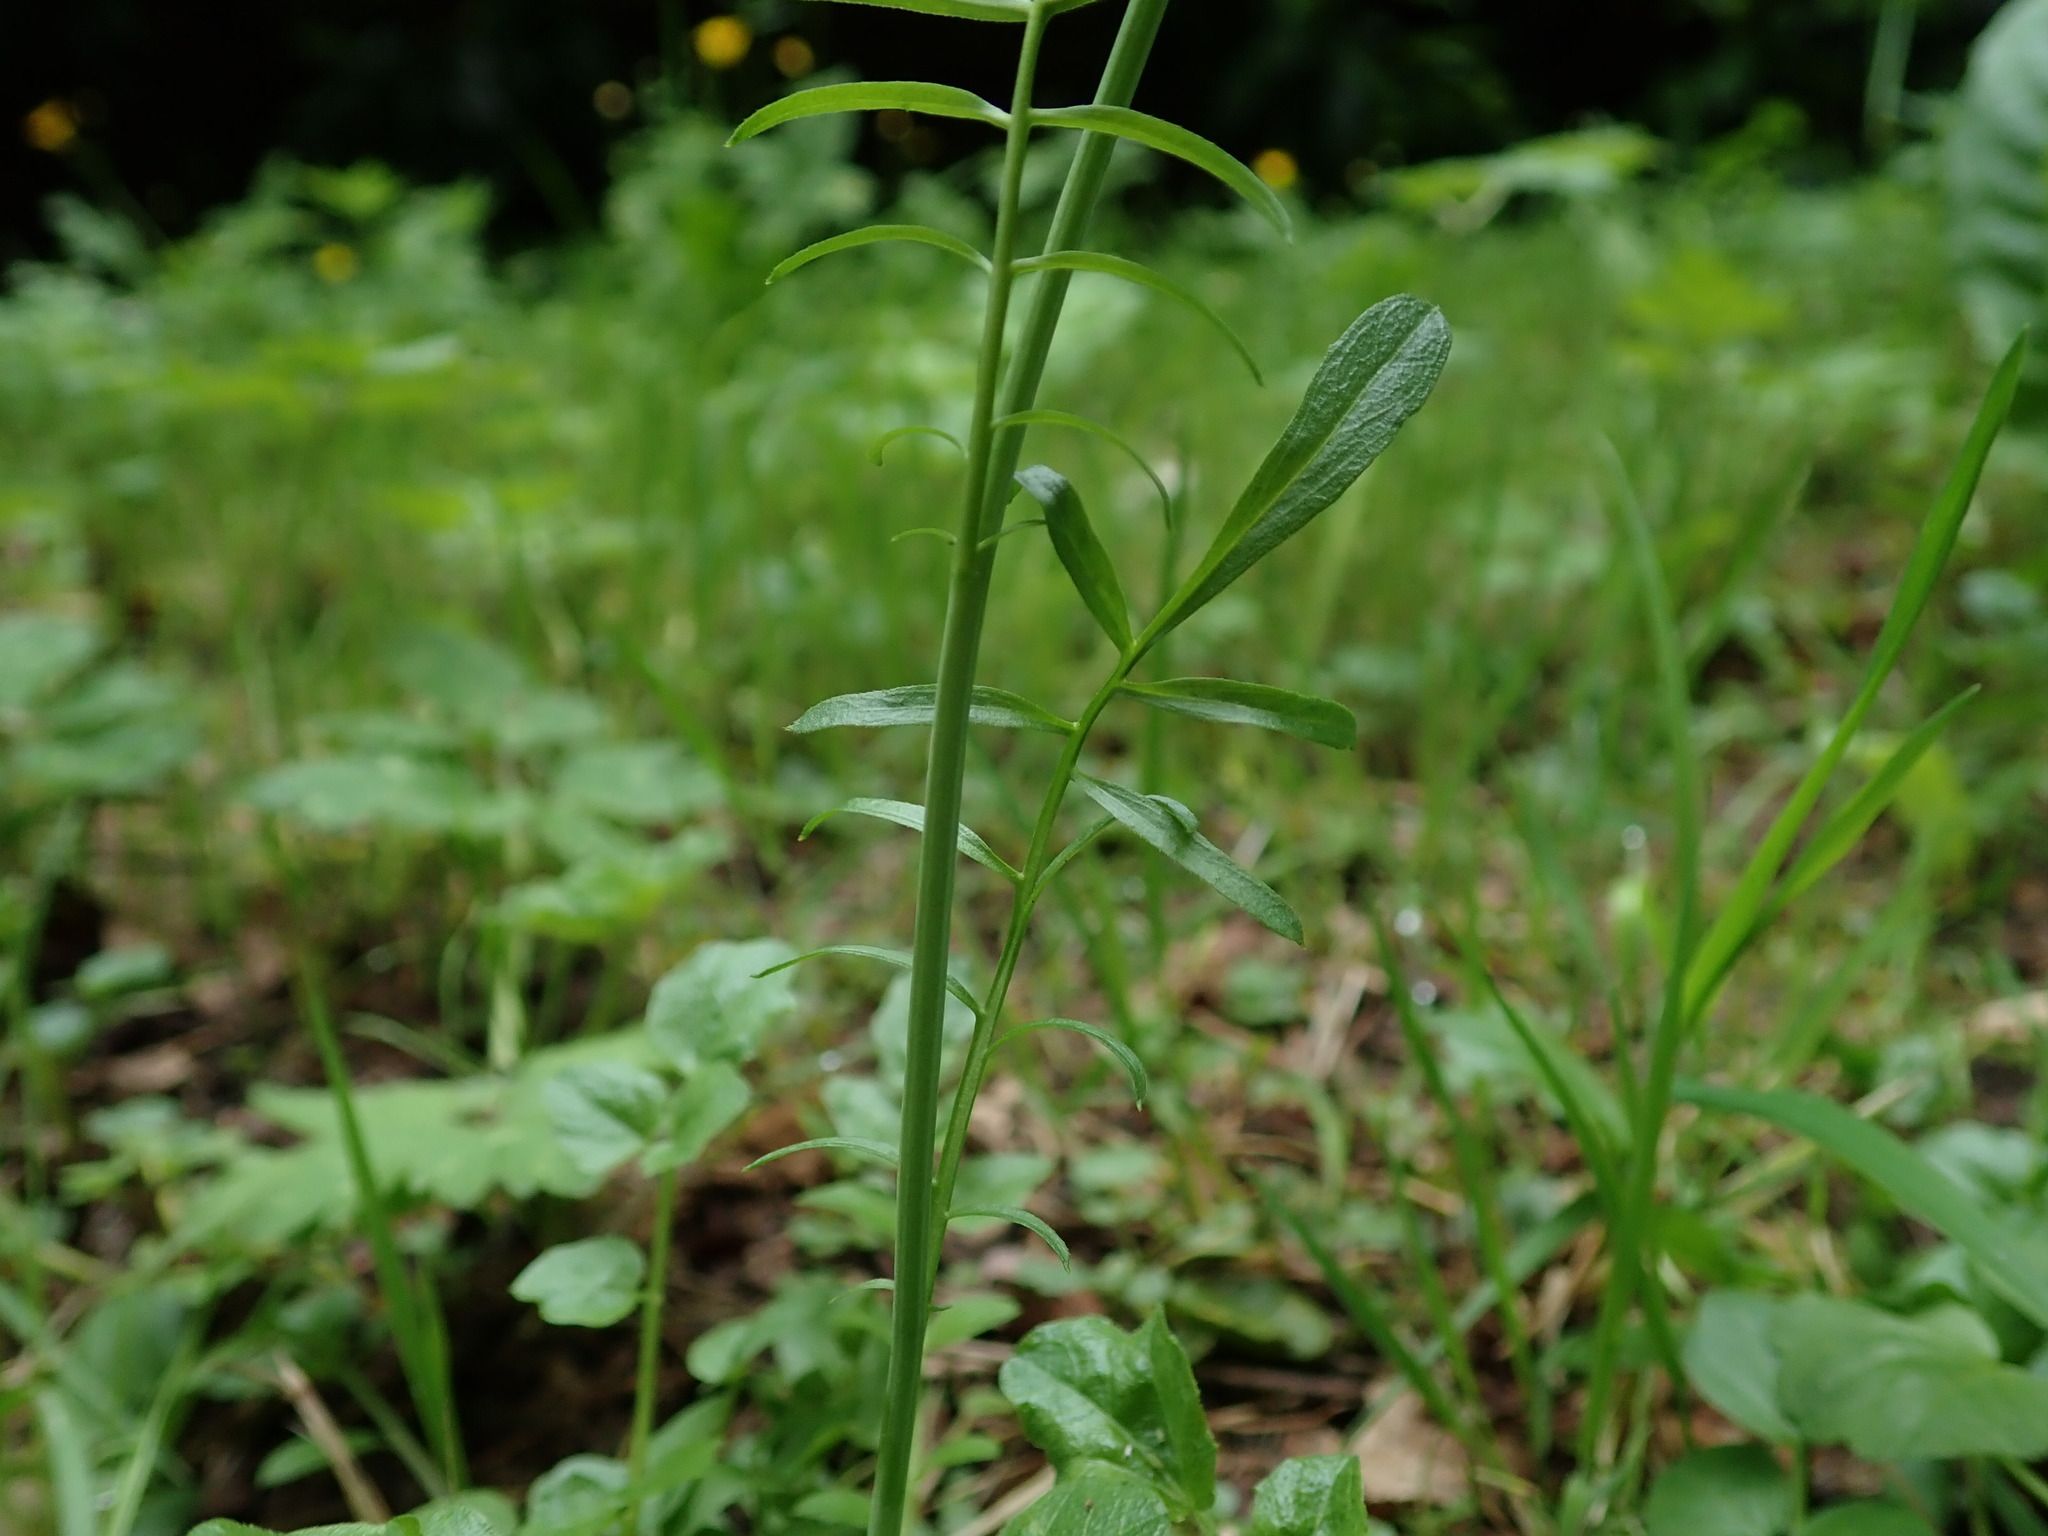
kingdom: Plantae
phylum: Tracheophyta
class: Magnoliopsida
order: Brassicales
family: Brassicaceae
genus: Cardamine
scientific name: Cardamine pratensis
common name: Cuckoo flower
